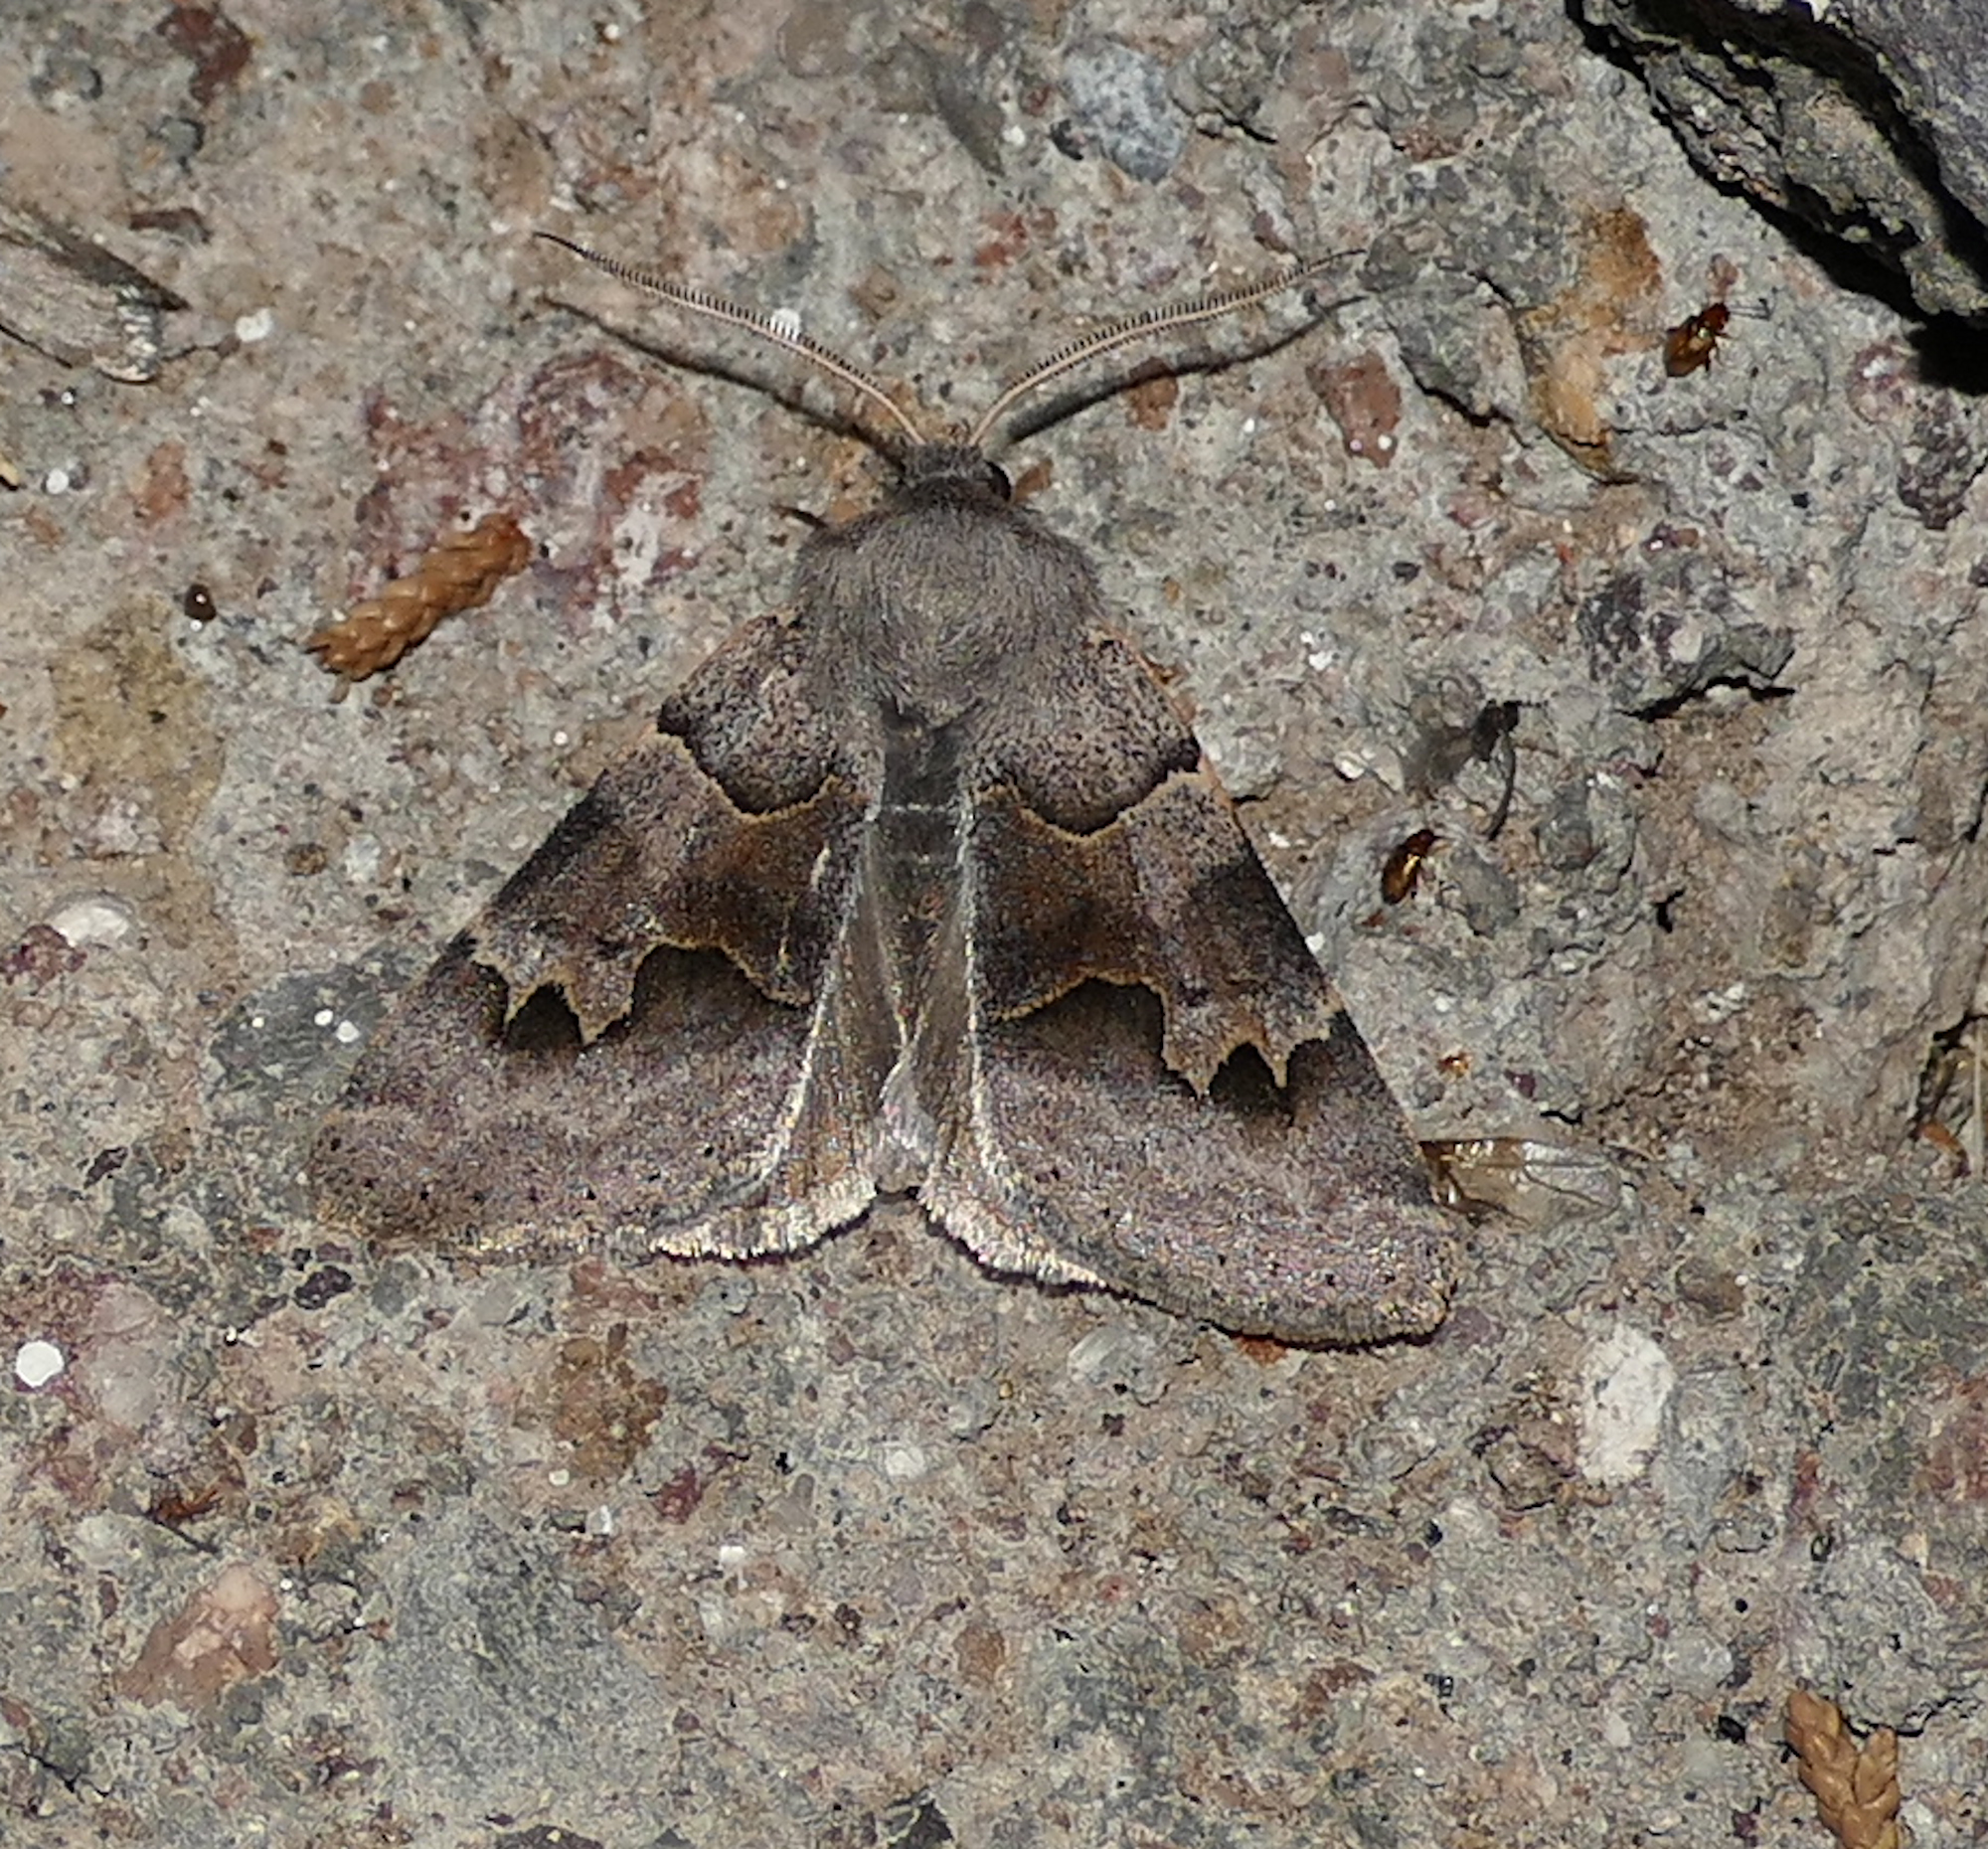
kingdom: Animalia
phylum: Arthropoda
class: Insecta
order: Lepidoptera
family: Erebidae
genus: Ulosyneda
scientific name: Ulosyneda valens
